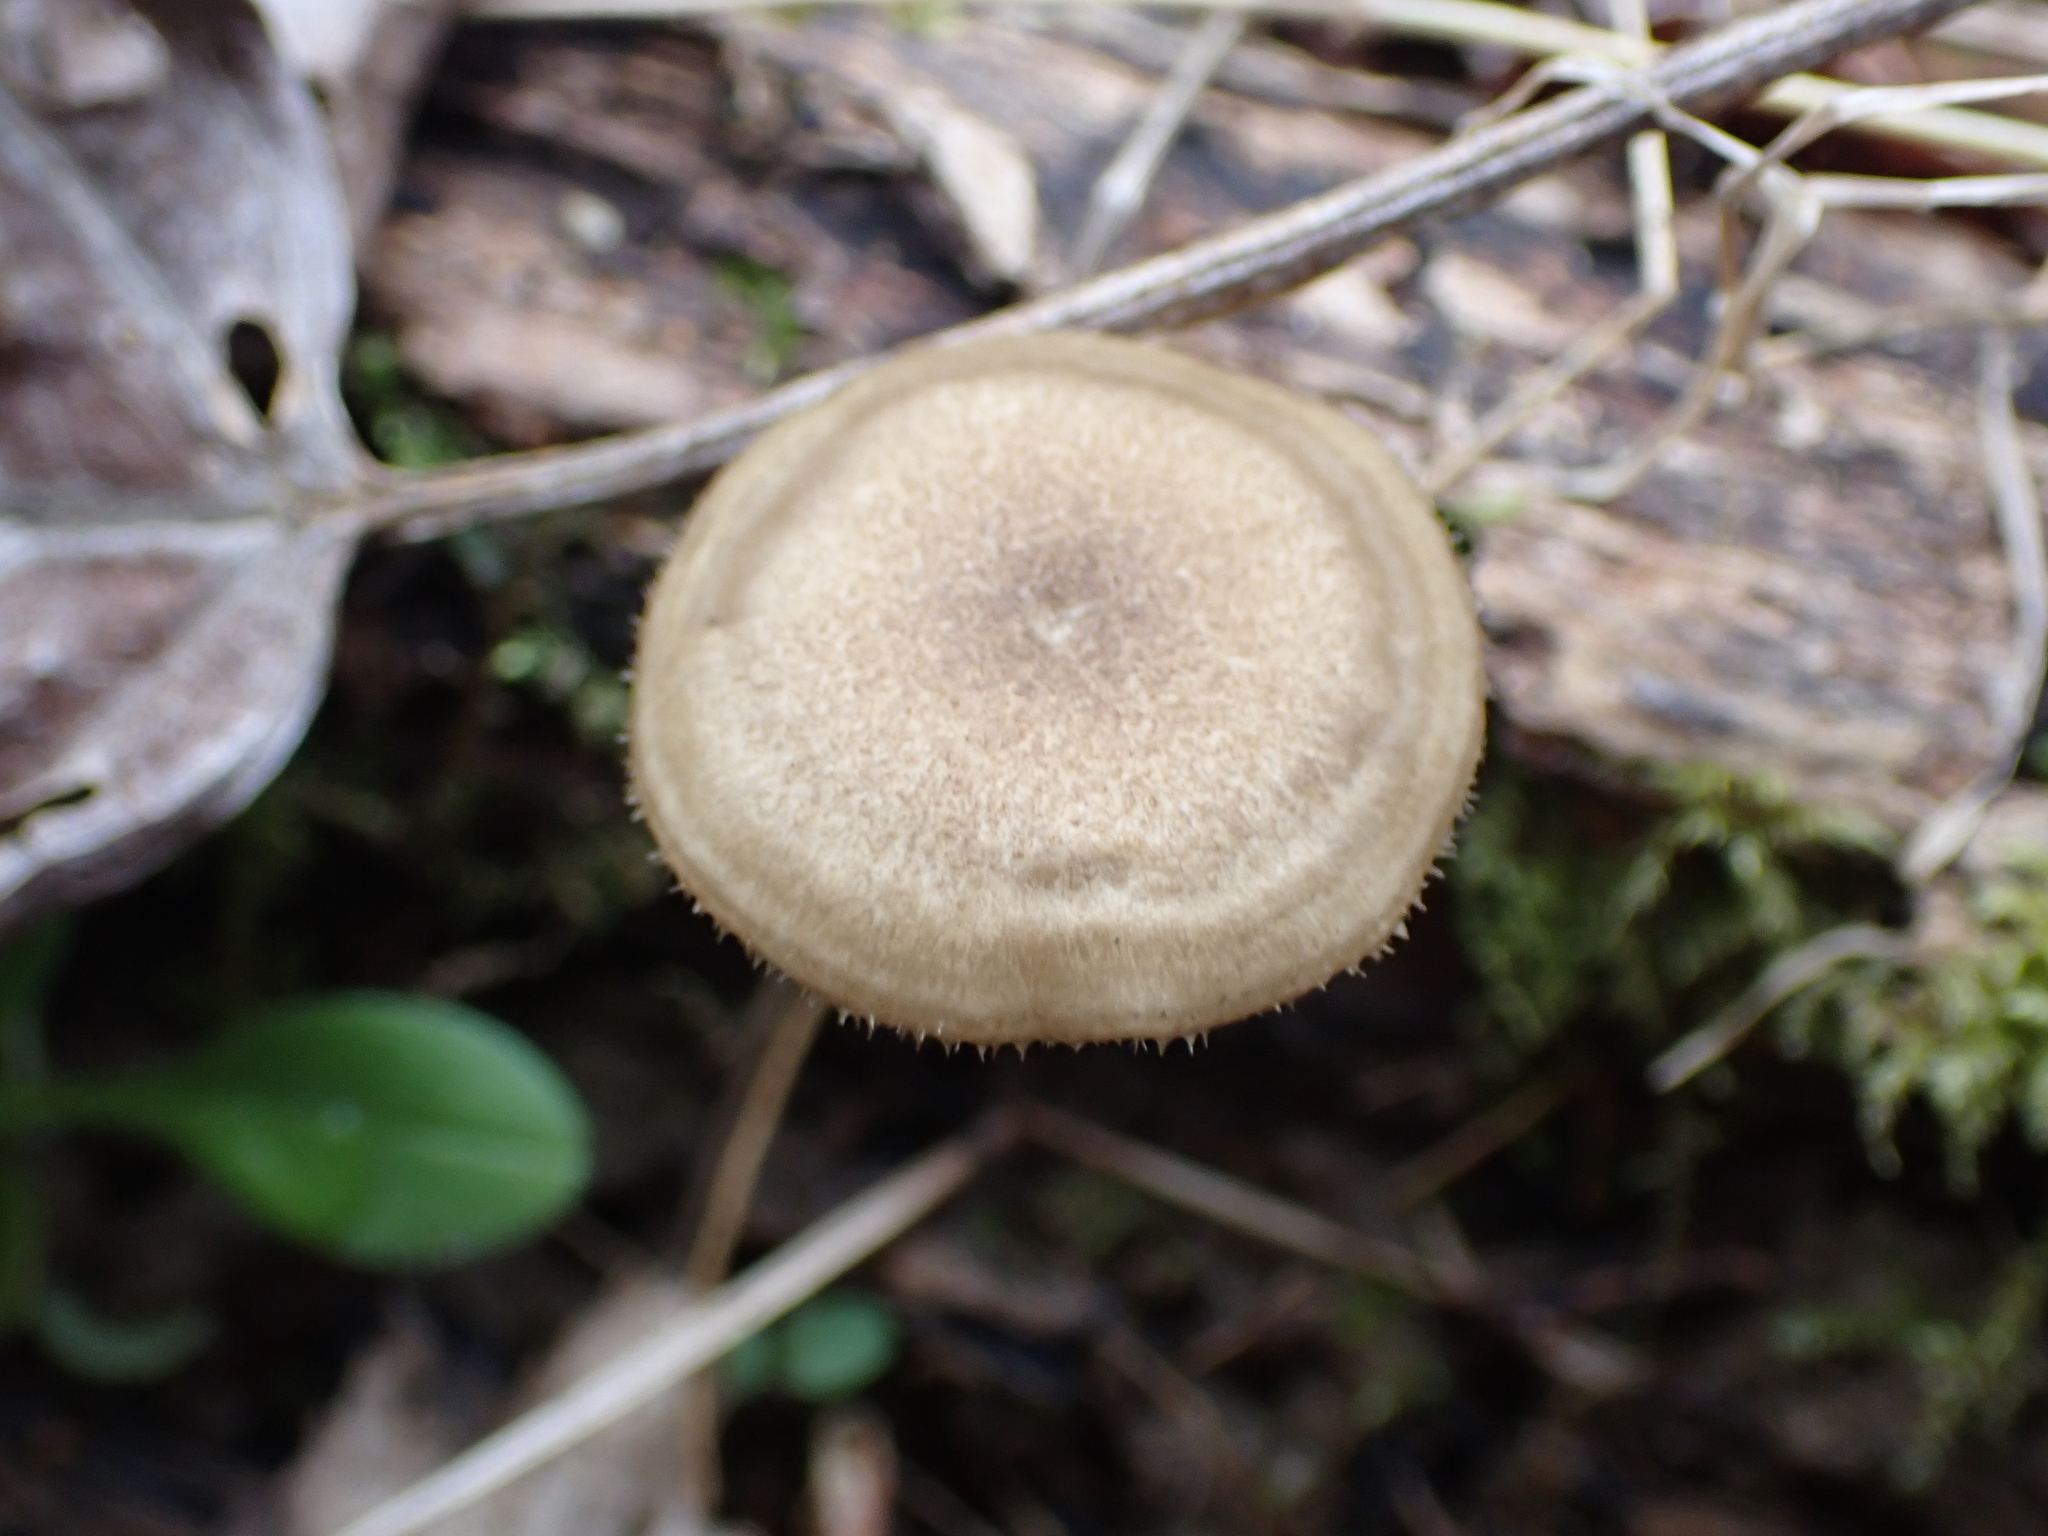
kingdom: Fungi
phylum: Basidiomycota
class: Agaricomycetes
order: Polyporales
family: Polyporaceae
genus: Lentinus
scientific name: Lentinus arcularius
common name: Spring polypore
